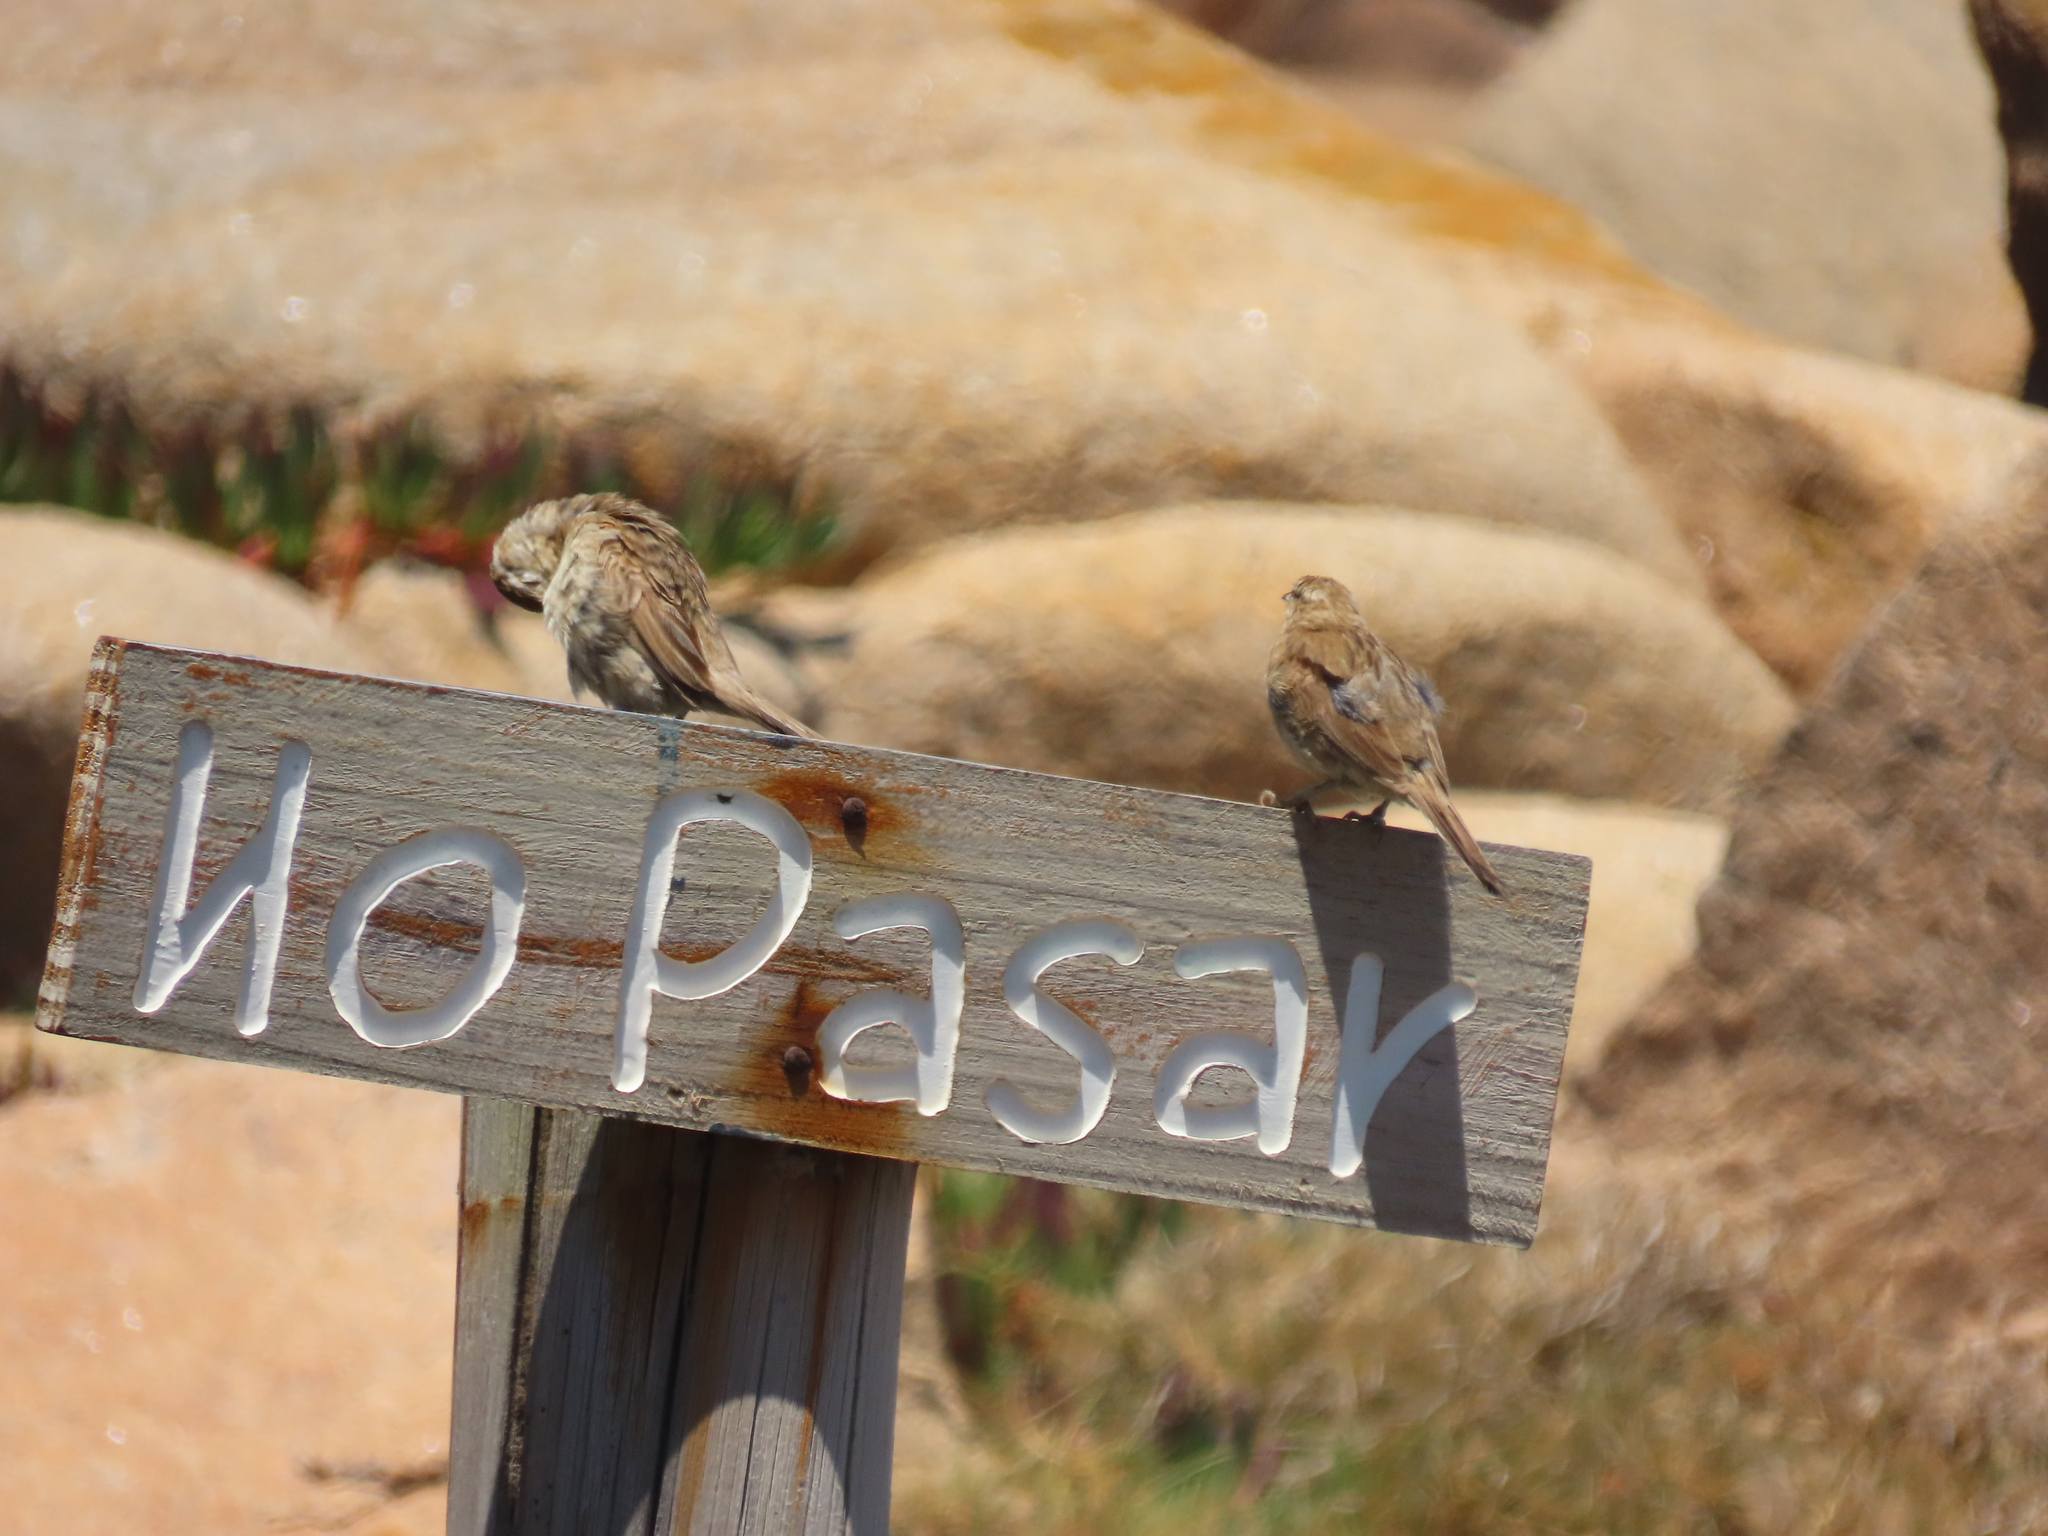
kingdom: Animalia
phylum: Chordata
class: Aves
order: Passeriformes
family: Furnariidae
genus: Anumbius
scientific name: Anumbius annumbi
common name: Firewood-gatherer
